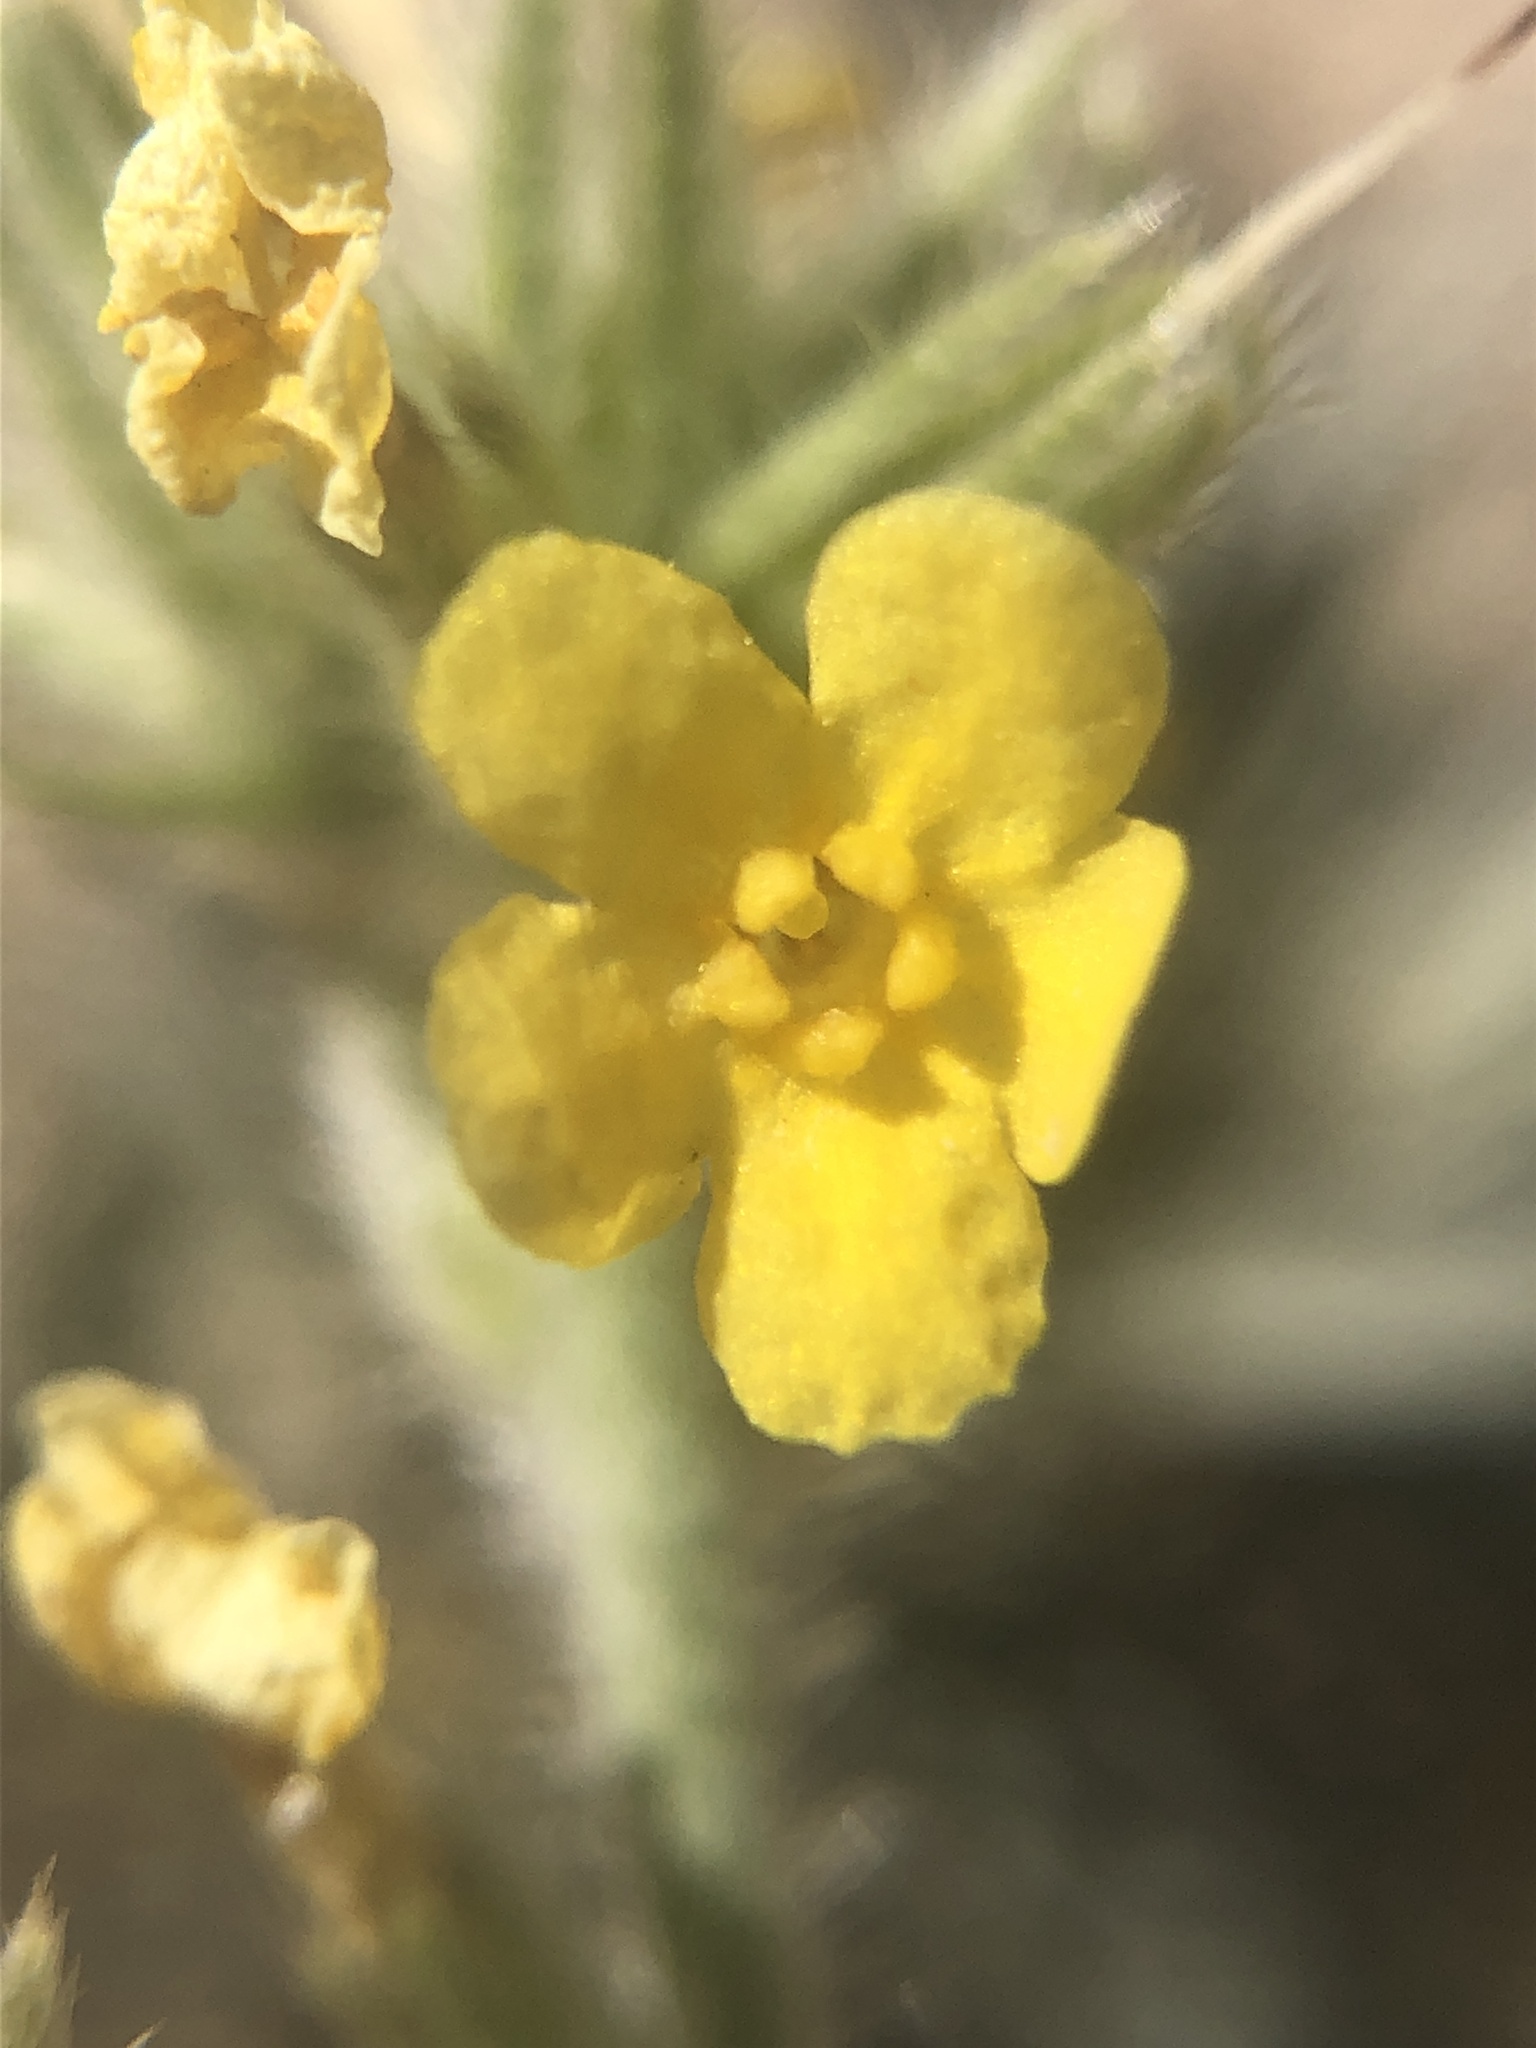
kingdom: Plantae
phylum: Tracheophyta
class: Magnoliopsida
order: Boraginales
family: Boraginaceae
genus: Oreocarya
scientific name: Oreocarya confertiflora
